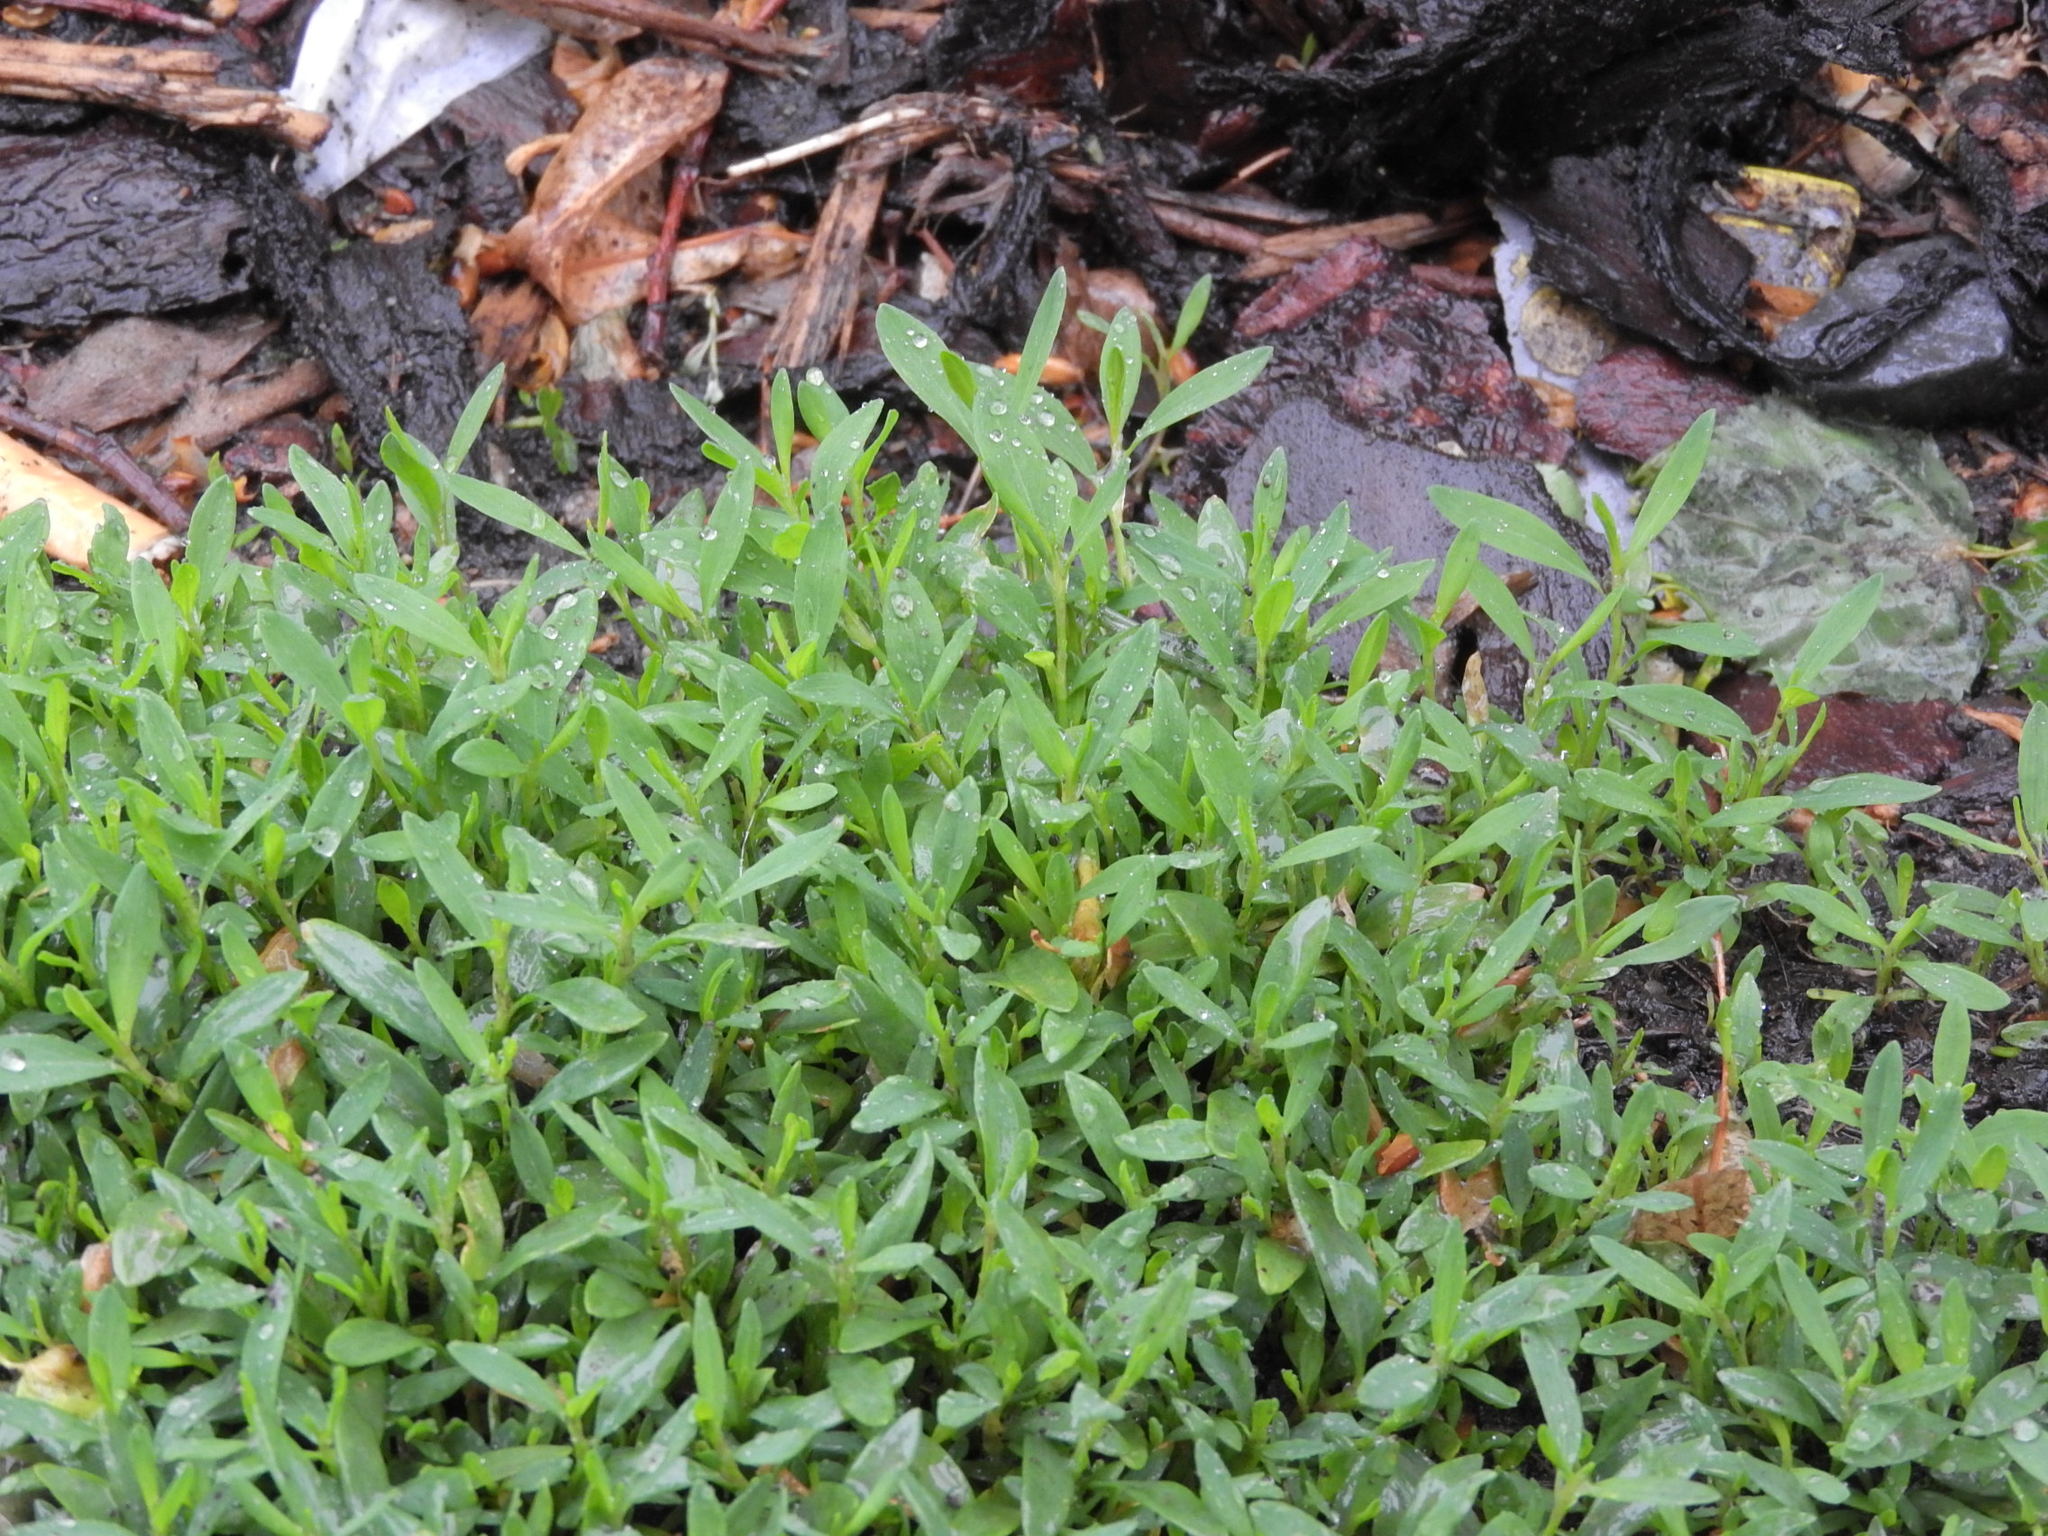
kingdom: Plantae
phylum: Tracheophyta
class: Magnoliopsida
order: Caryophyllales
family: Polygonaceae
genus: Polygonum
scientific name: Polygonum aviculare
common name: Prostrate knotweed
